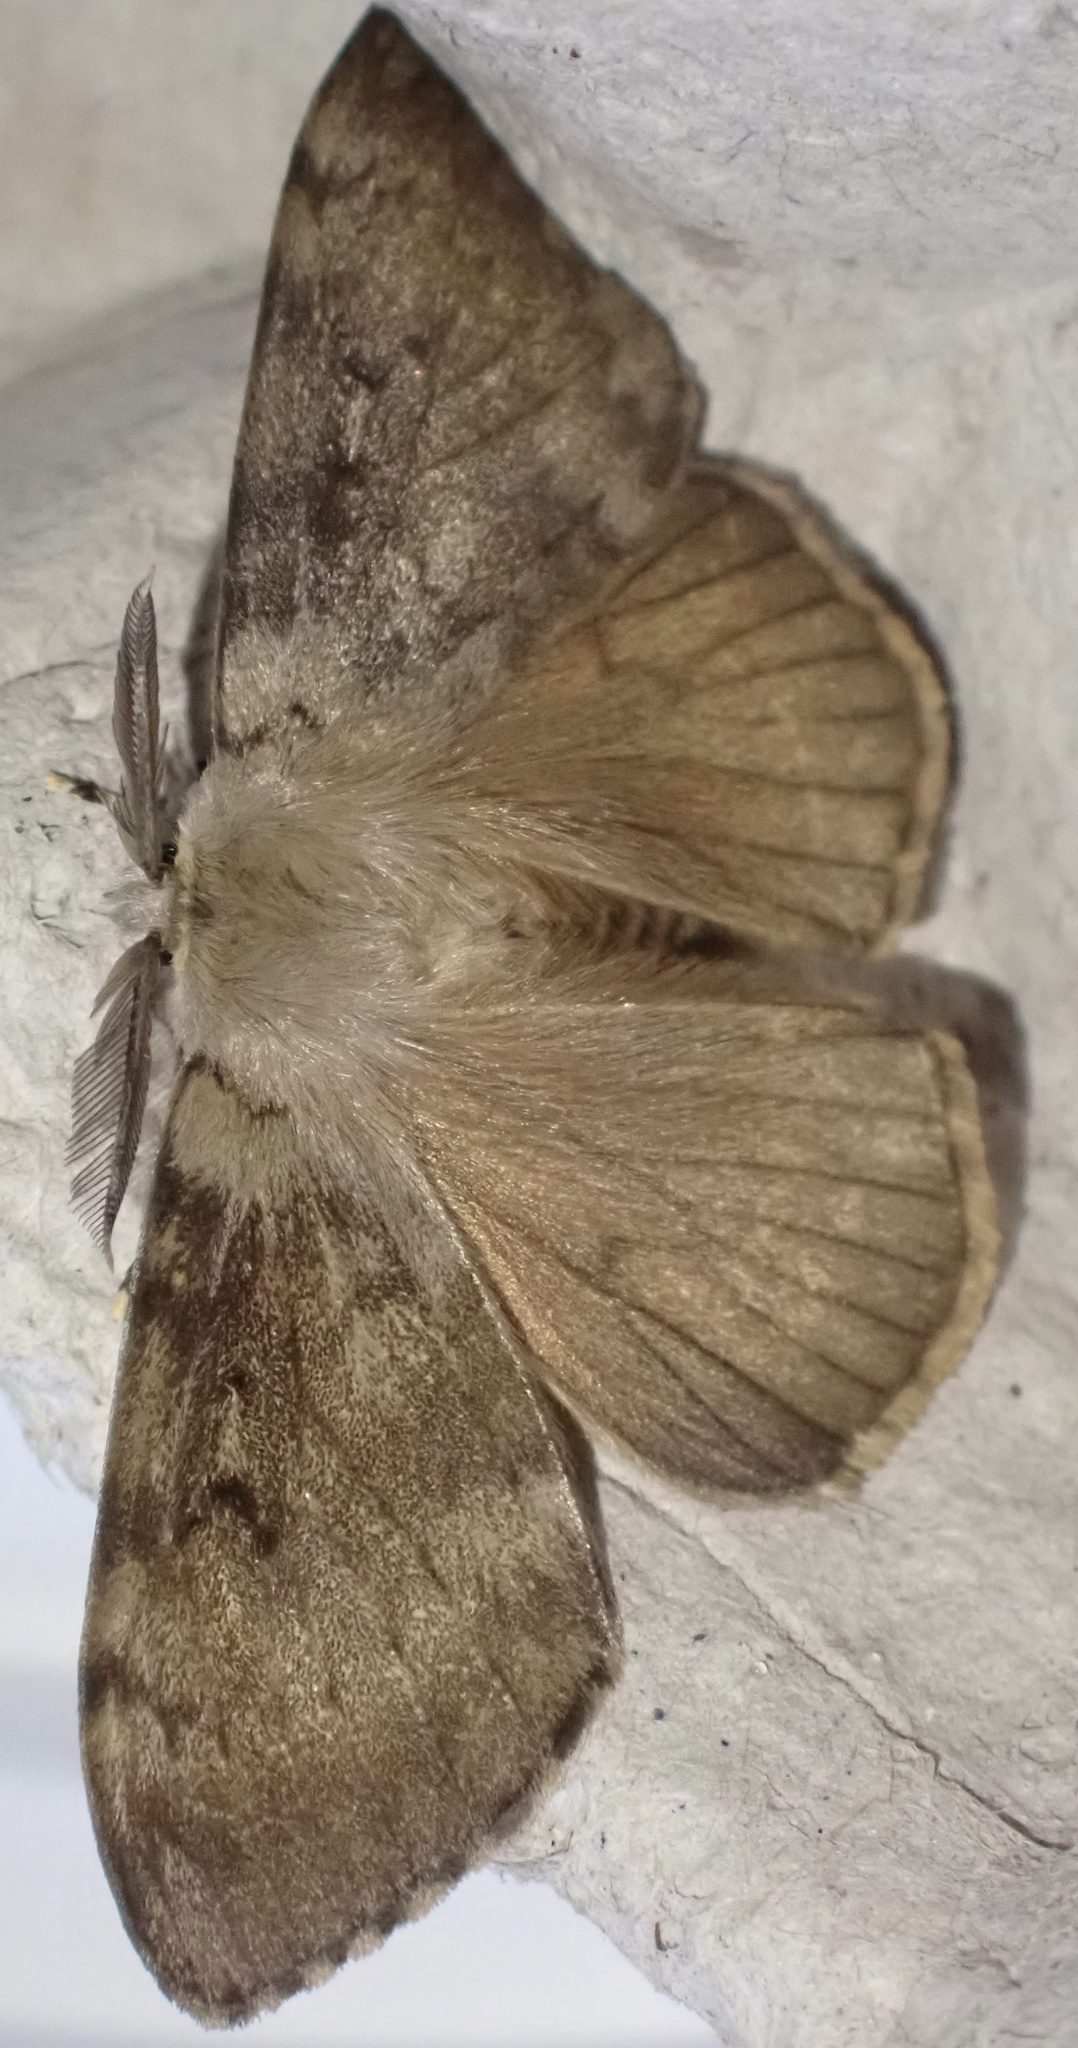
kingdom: Animalia
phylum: Arthropoda
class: Insecta
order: Lepidoptera
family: Erebidae
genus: Lymantria
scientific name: Lymantria dispar
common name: Gypsy moth
